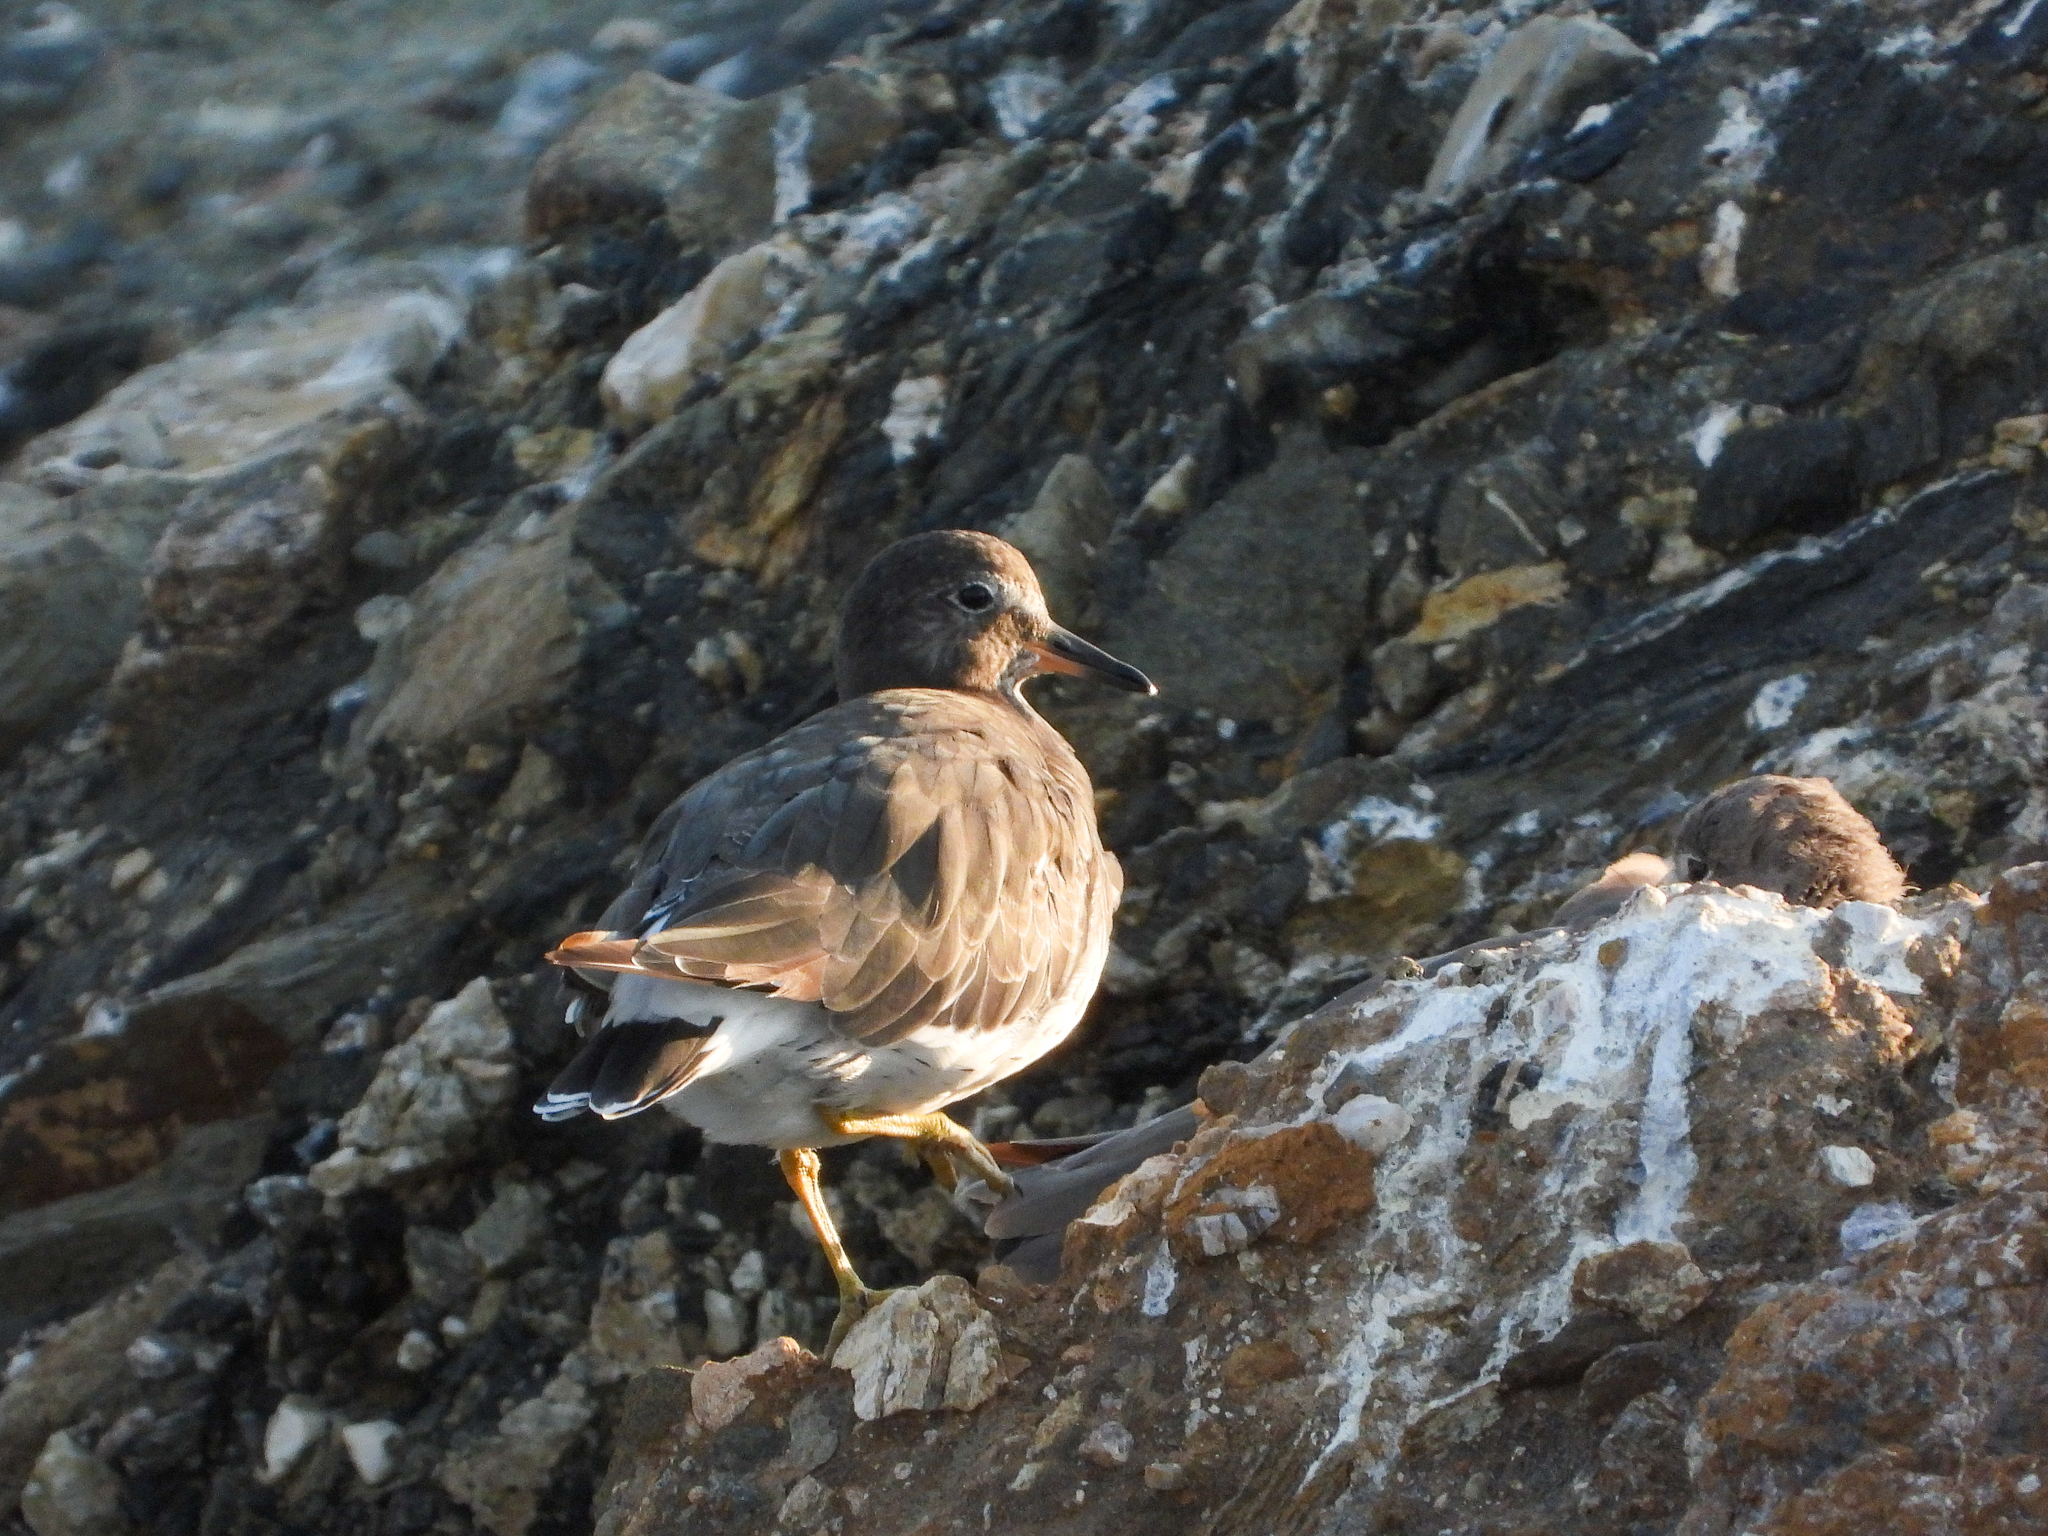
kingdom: Animalia
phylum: Chordata
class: Aves
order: Charadriiformes
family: Scolopacidae
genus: Calidris
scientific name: Calidris virgata
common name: Surfbird
